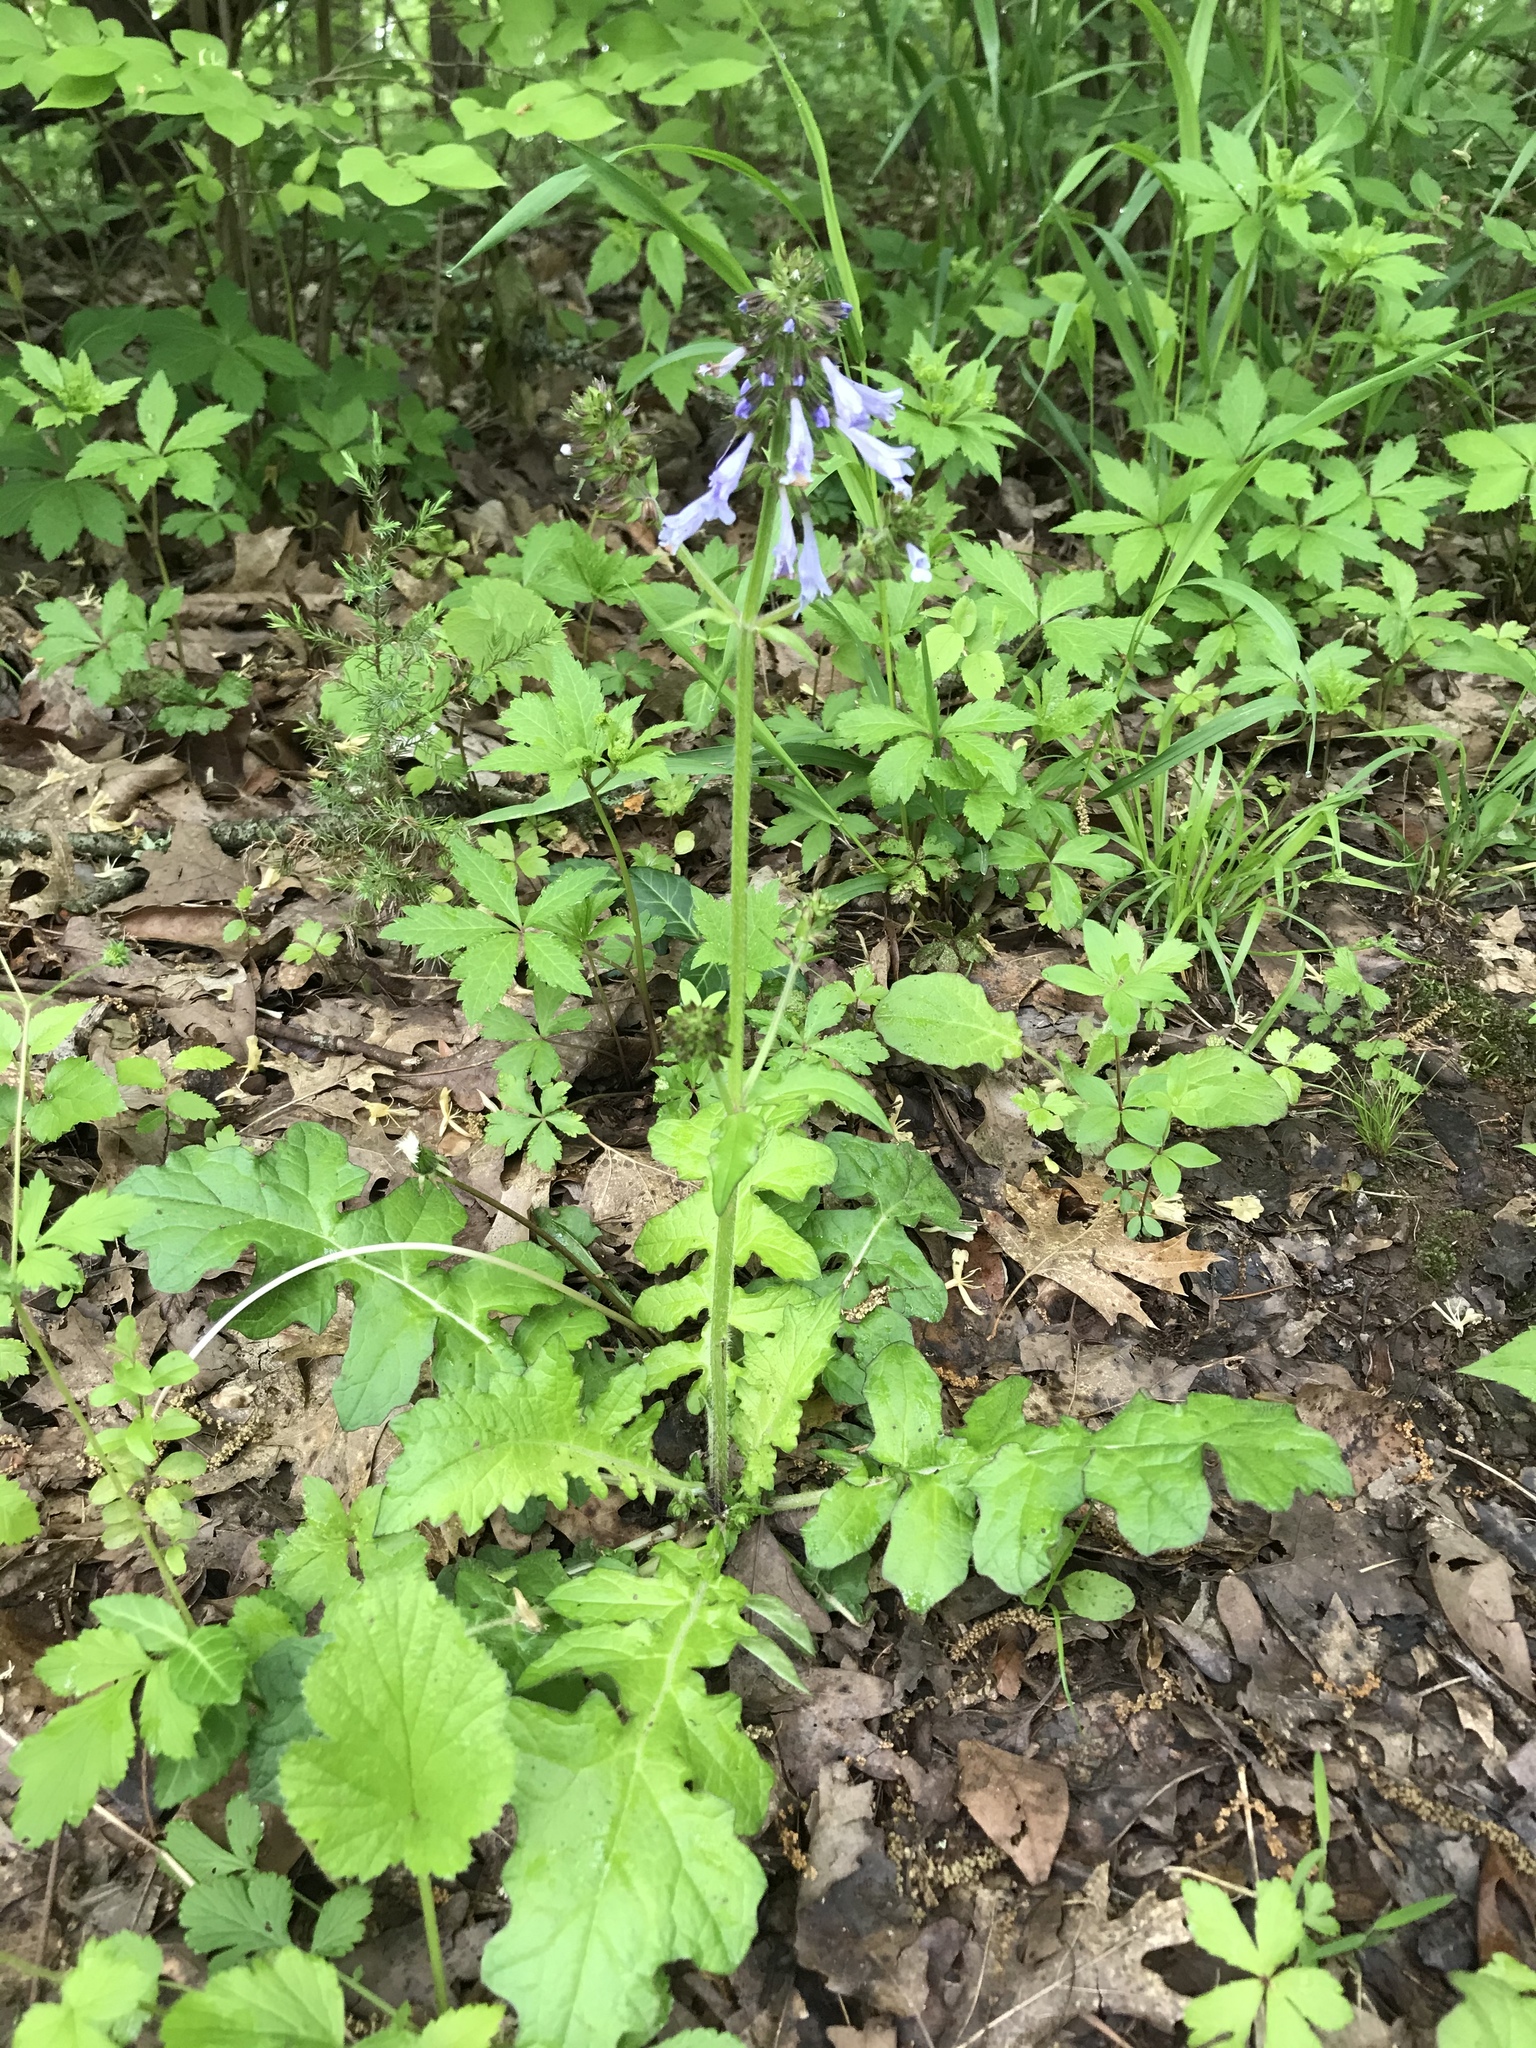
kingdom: Plantae
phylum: Tracheophyta
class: Magnoliopsida
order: Lamiales
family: Lamiaceae
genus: Salvia
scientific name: Salvia lyrata
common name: Cancerweed
